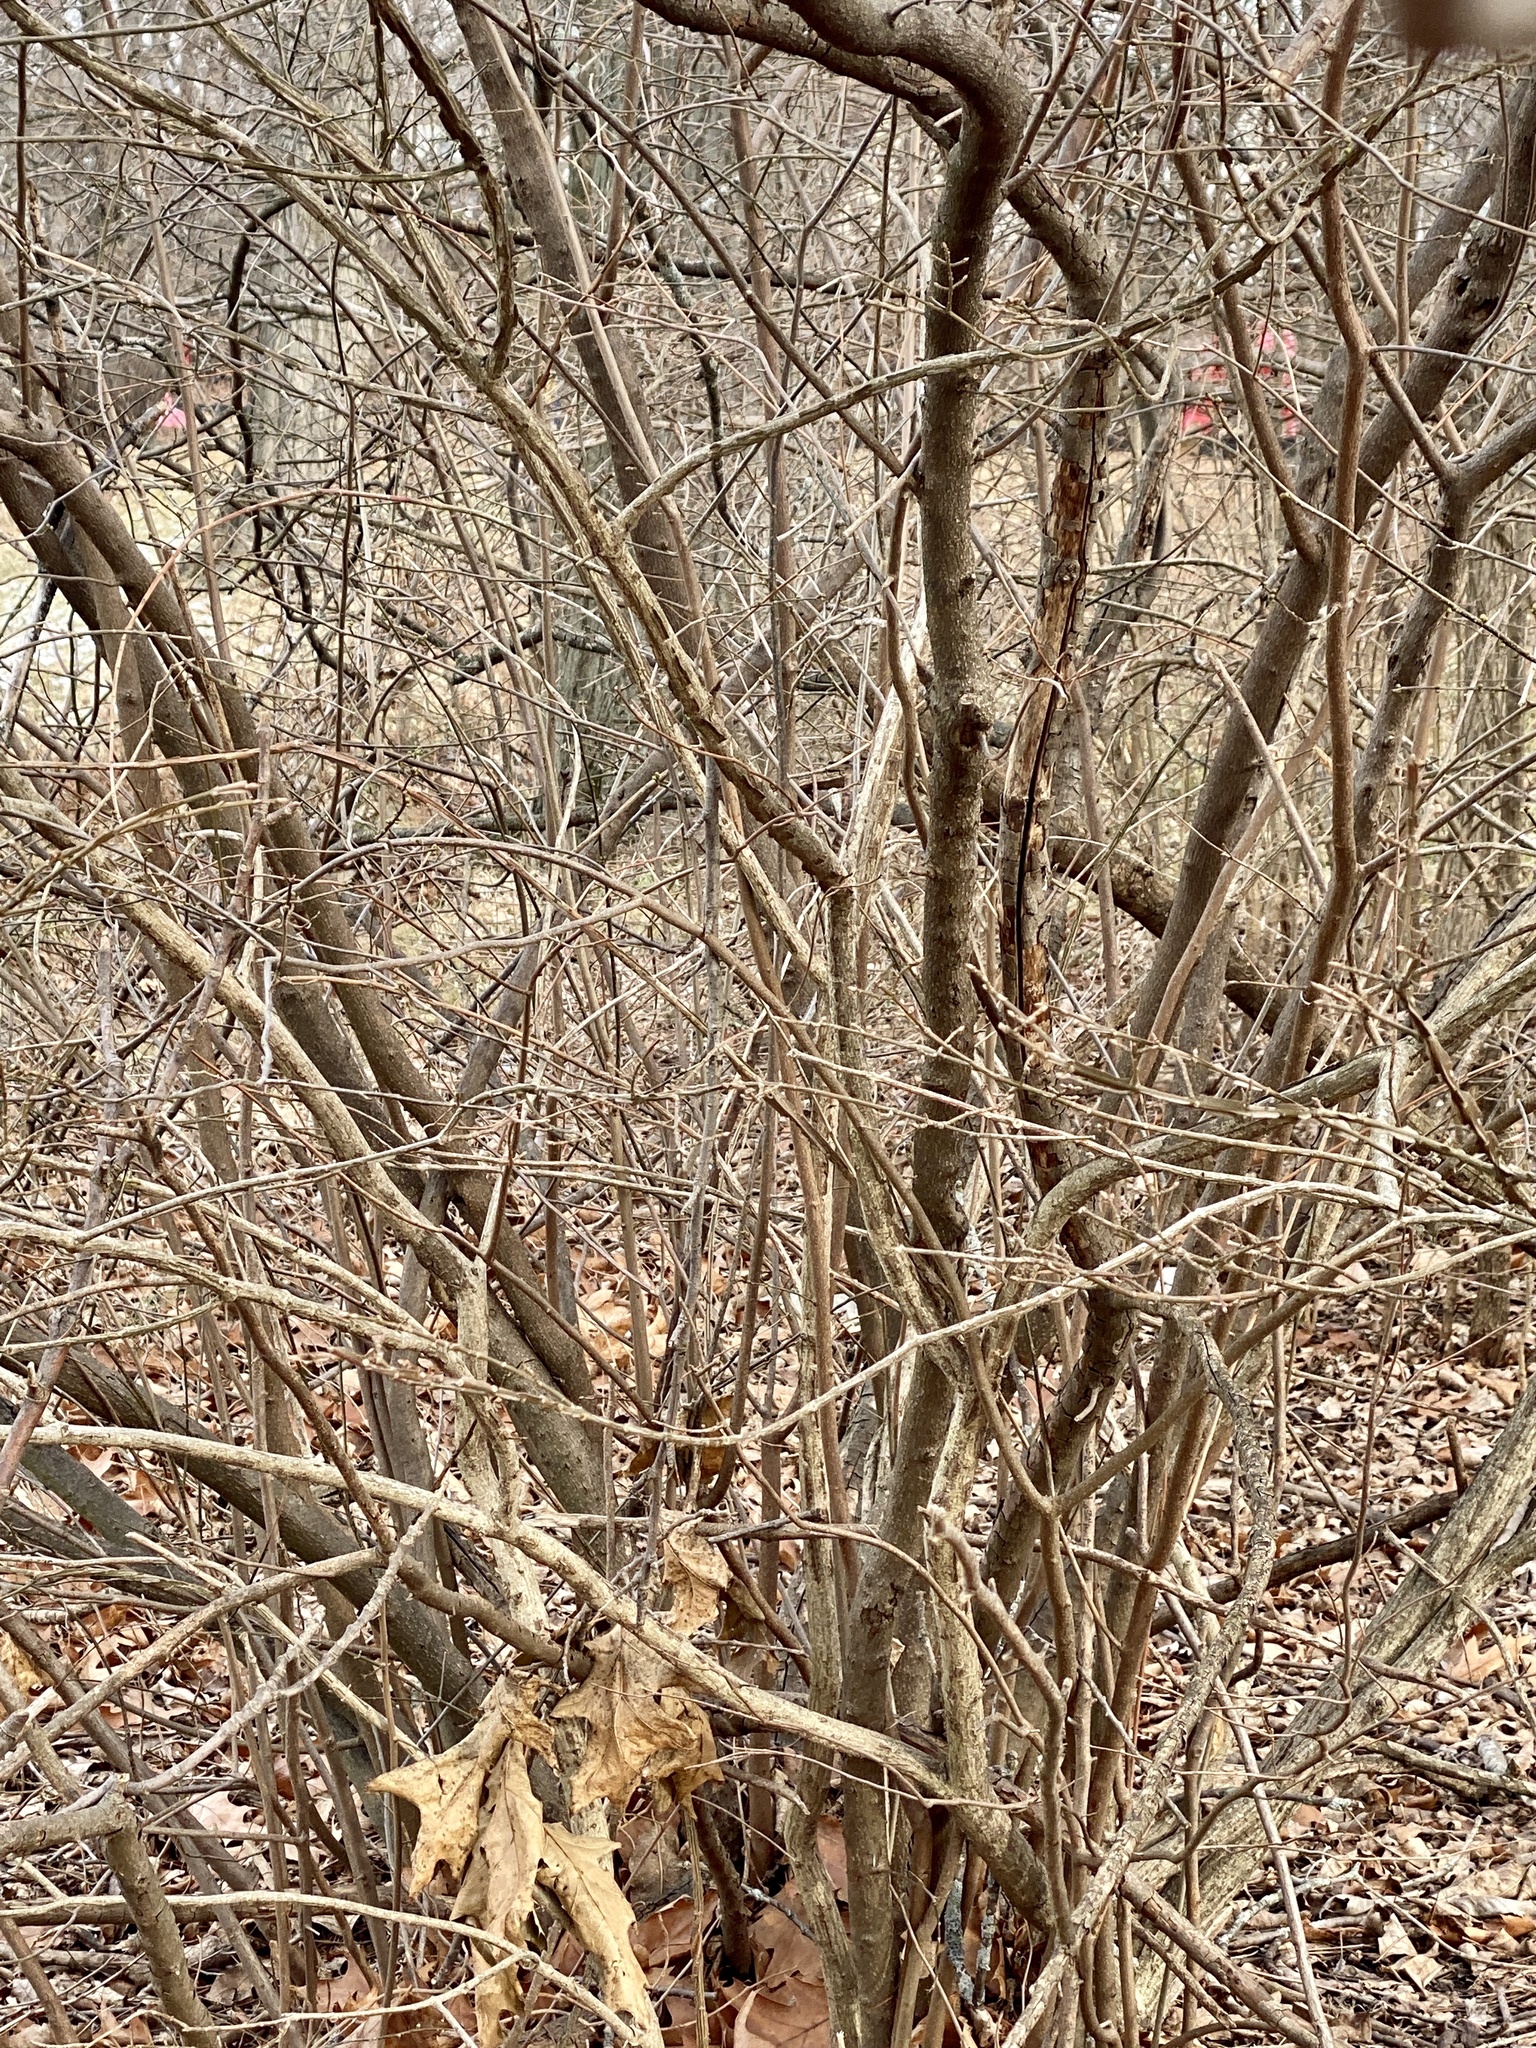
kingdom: Plantae
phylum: Tracheophyta
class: Magnoliopsida
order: Laurales
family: Lauraceae
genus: Lindera
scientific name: Lindera benzoin
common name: Spicebush
